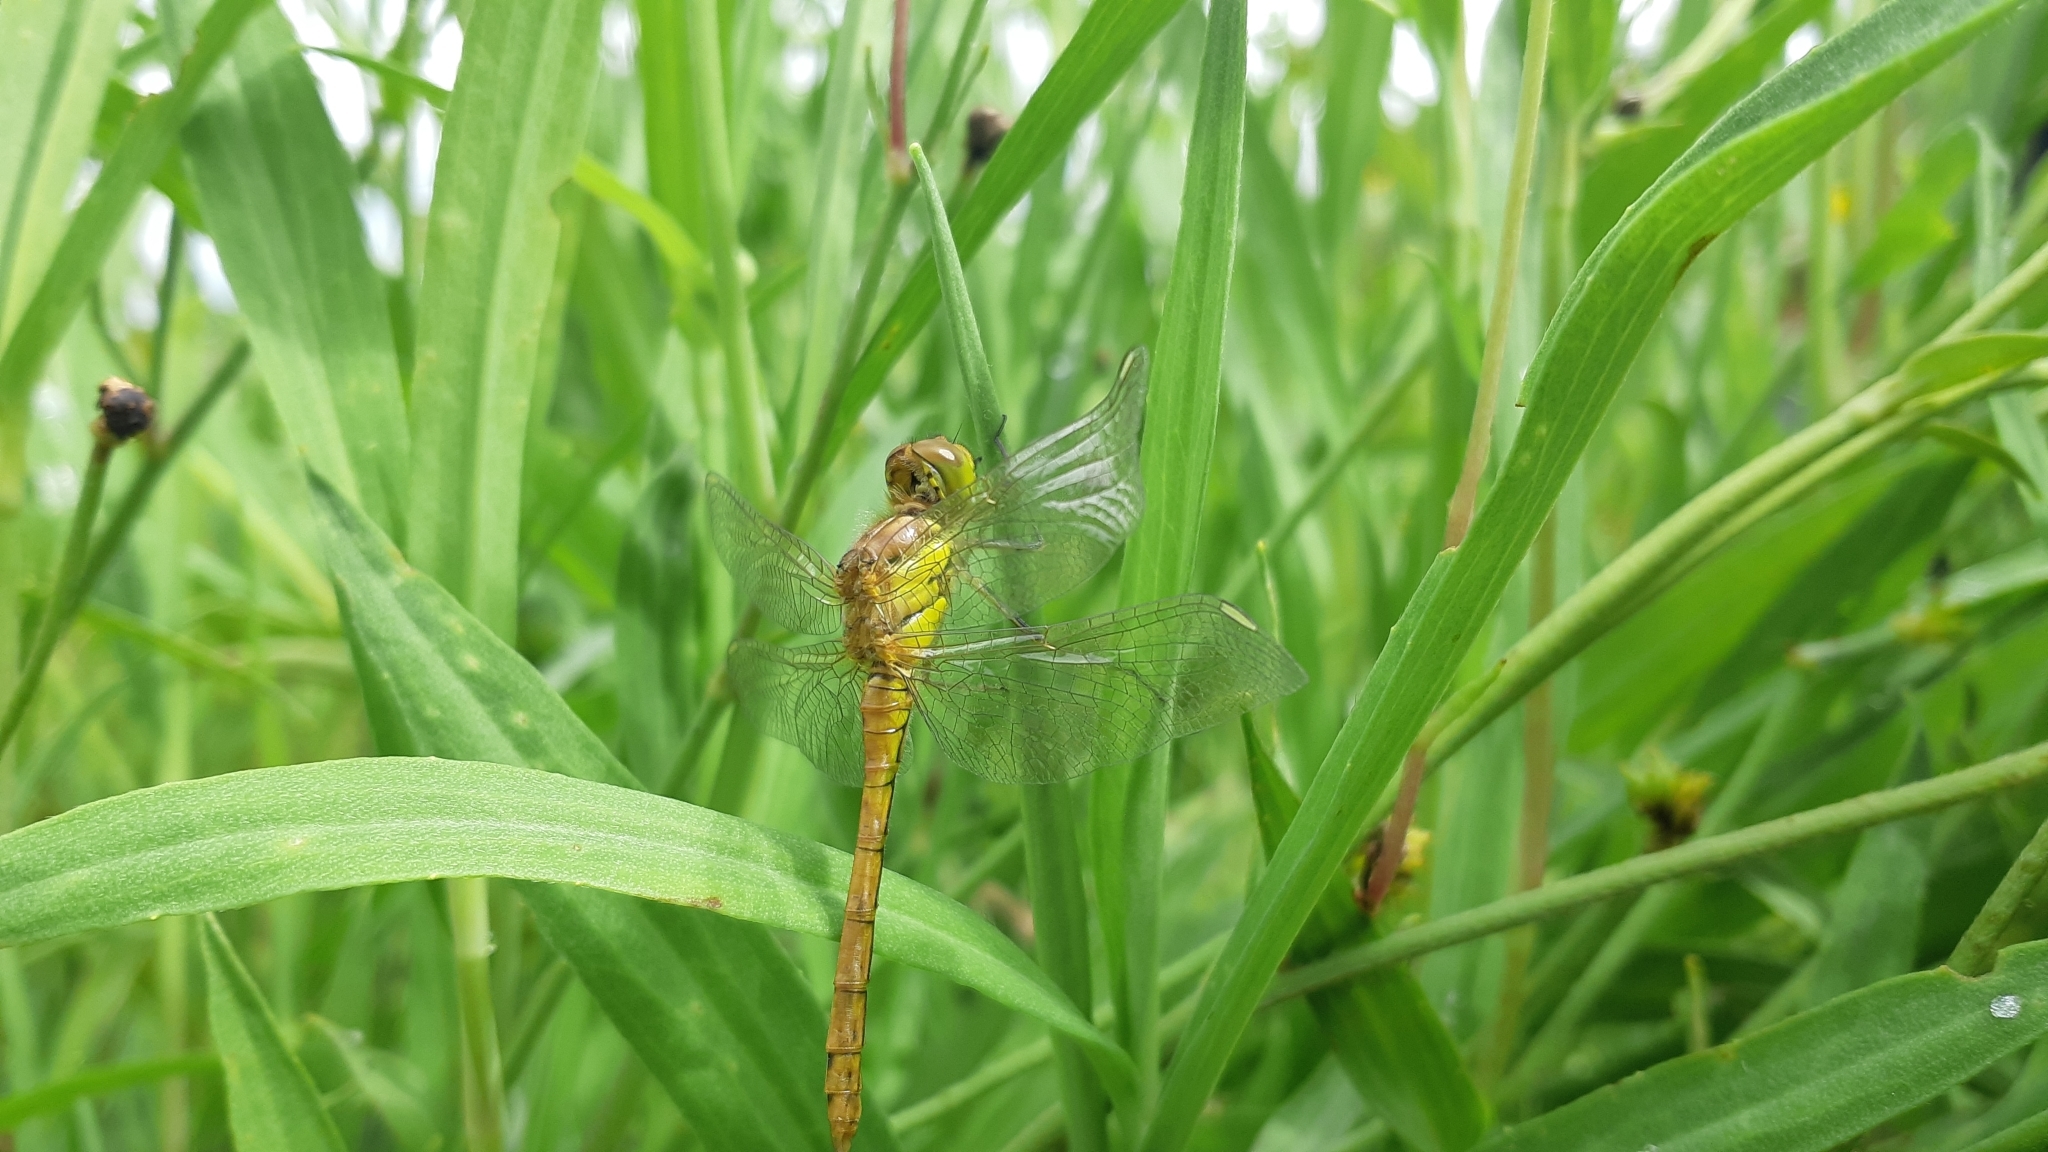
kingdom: Animalia
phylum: Arthropoda
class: Insecta
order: Odonata
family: Libellulidae
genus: Sympetrum
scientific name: Sympetrum striolatum
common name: Common darter
